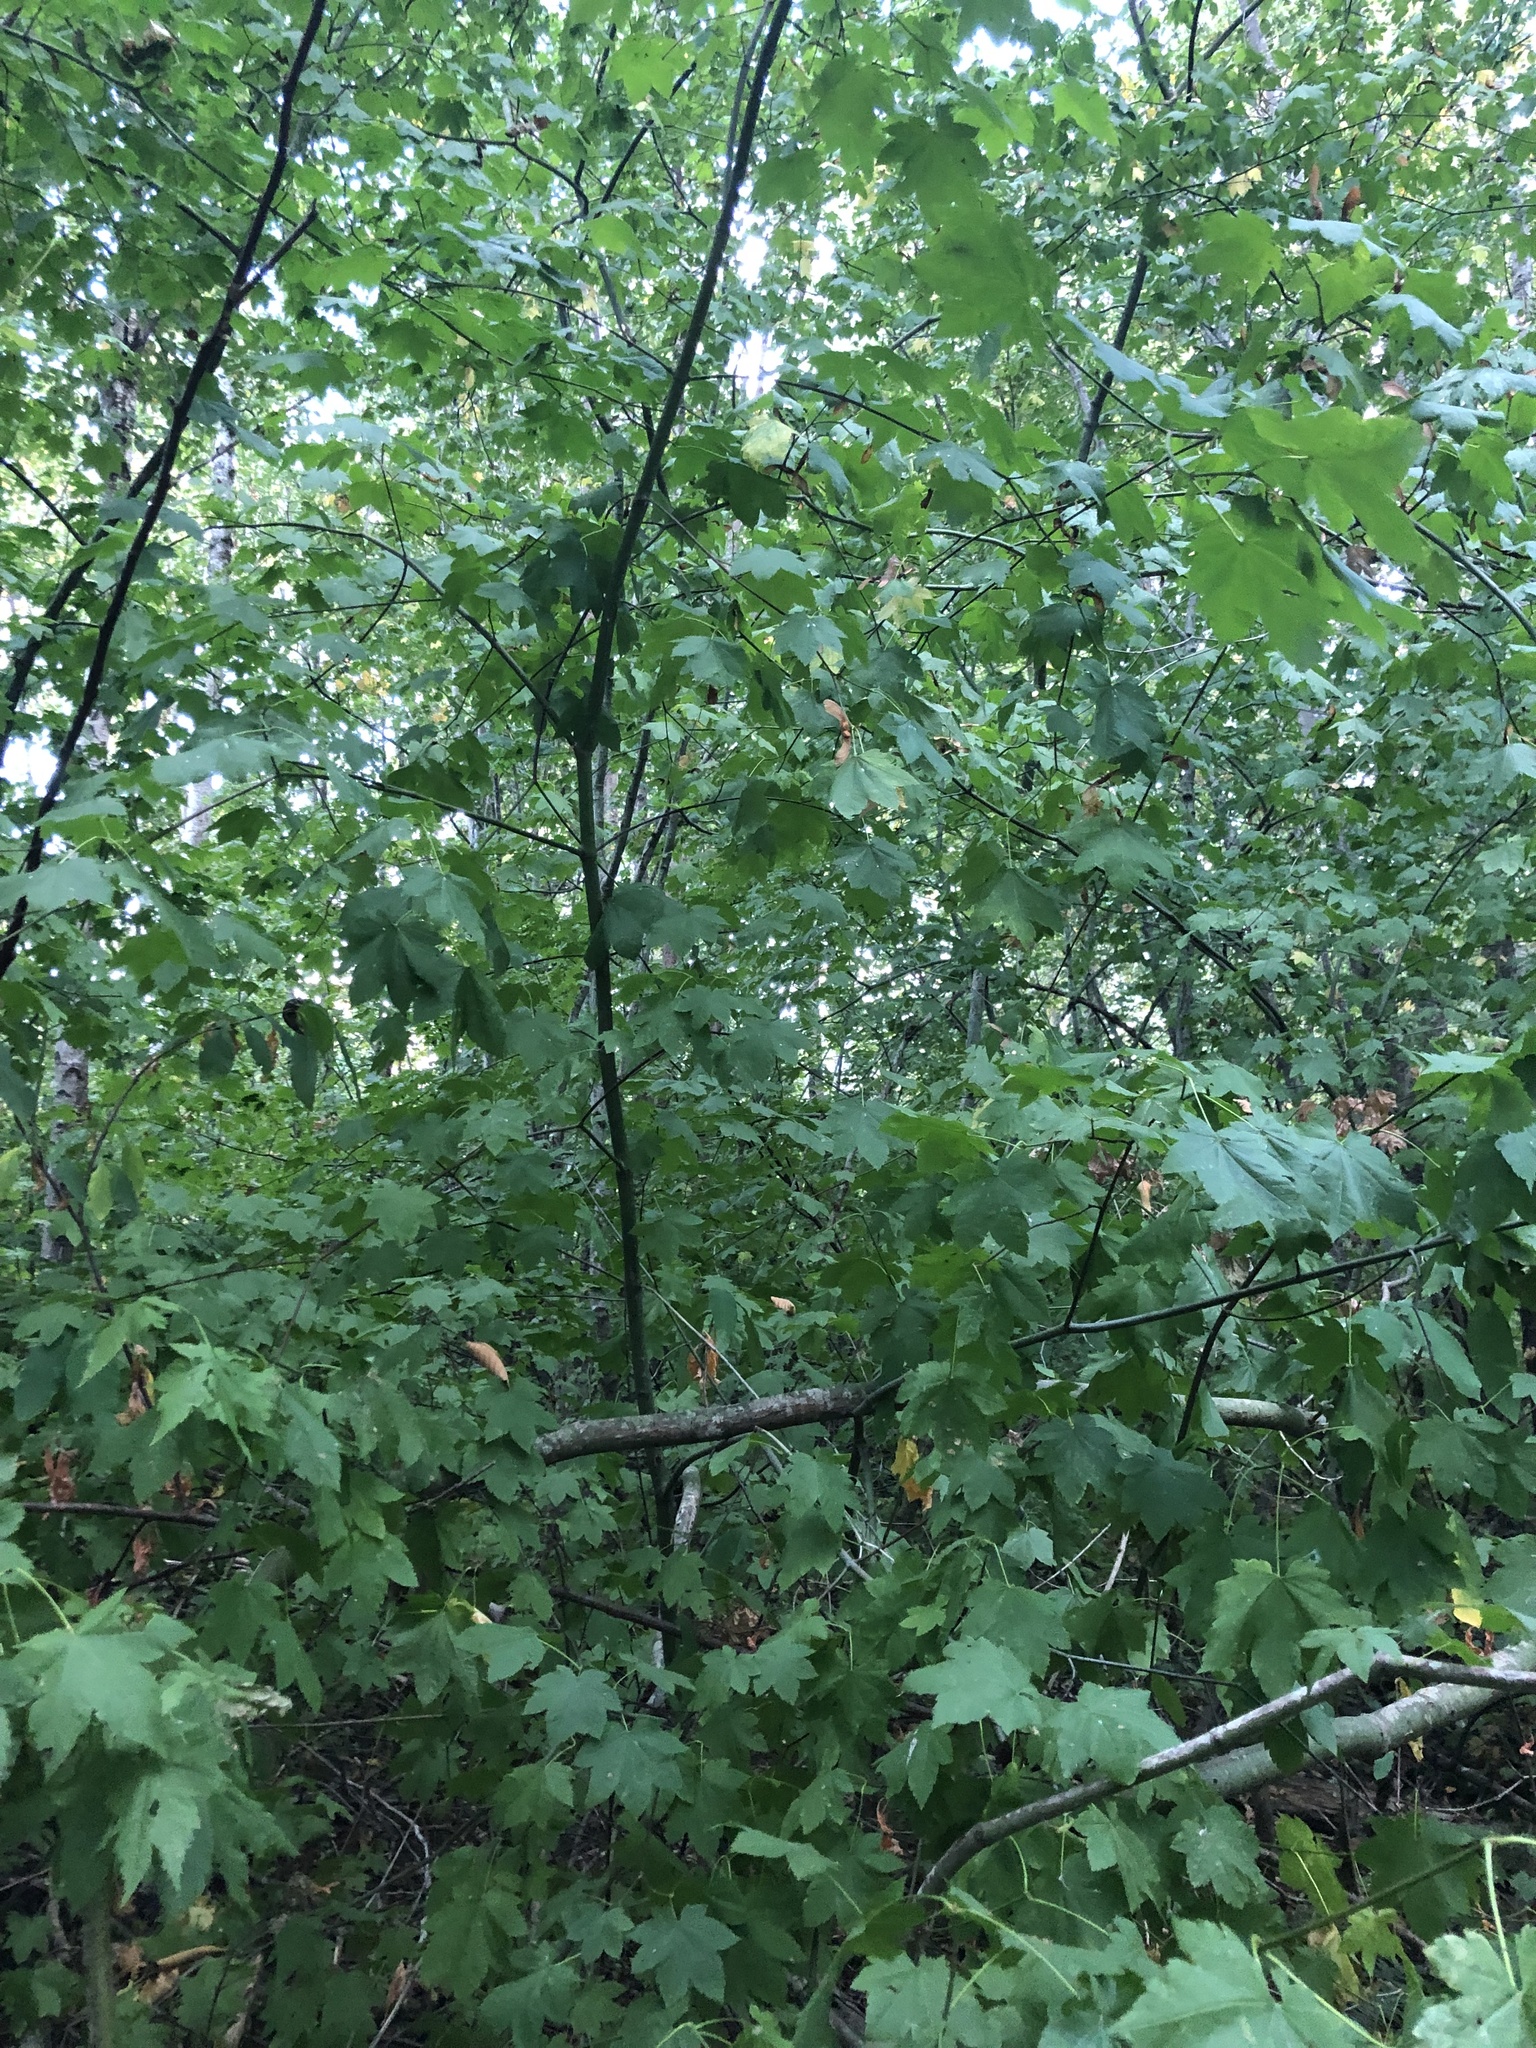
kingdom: Plantae
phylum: Tracheophyta
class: Magnoliopsida
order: Sapindales
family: Sapindaceae
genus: Acer
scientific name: Acer circinatum
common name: Vine maple
